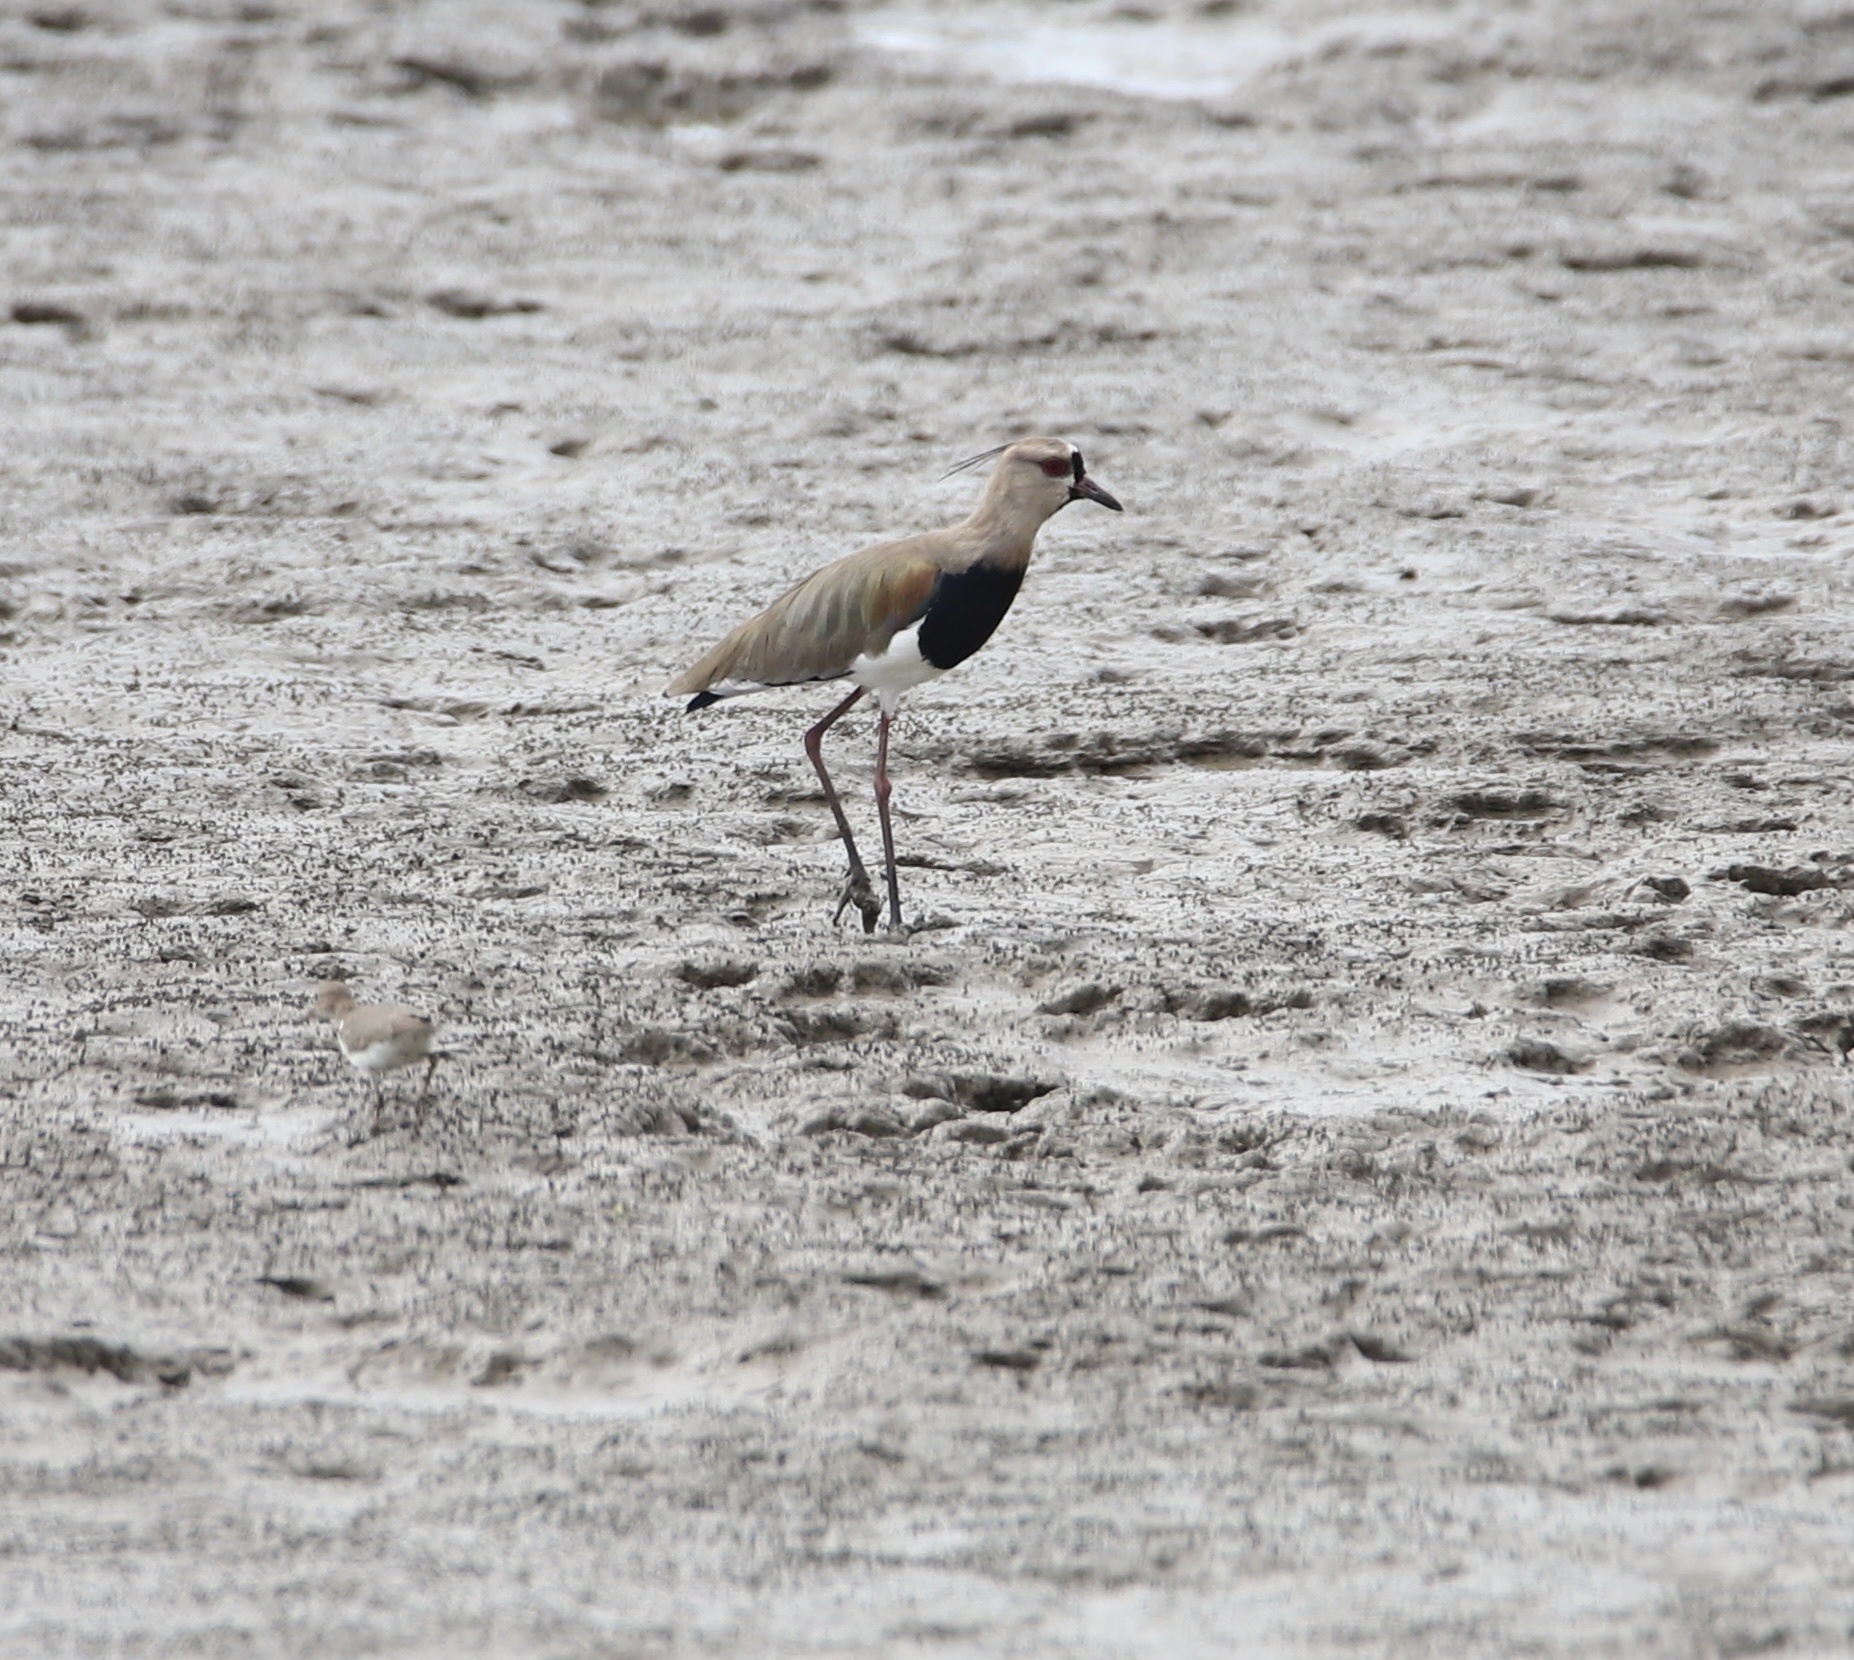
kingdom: Animalia
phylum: Chordata
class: Aves
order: Charadriiformes
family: Charadriidae
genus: Vanellus
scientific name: Vanellus chilensis
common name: Southern lapwing
